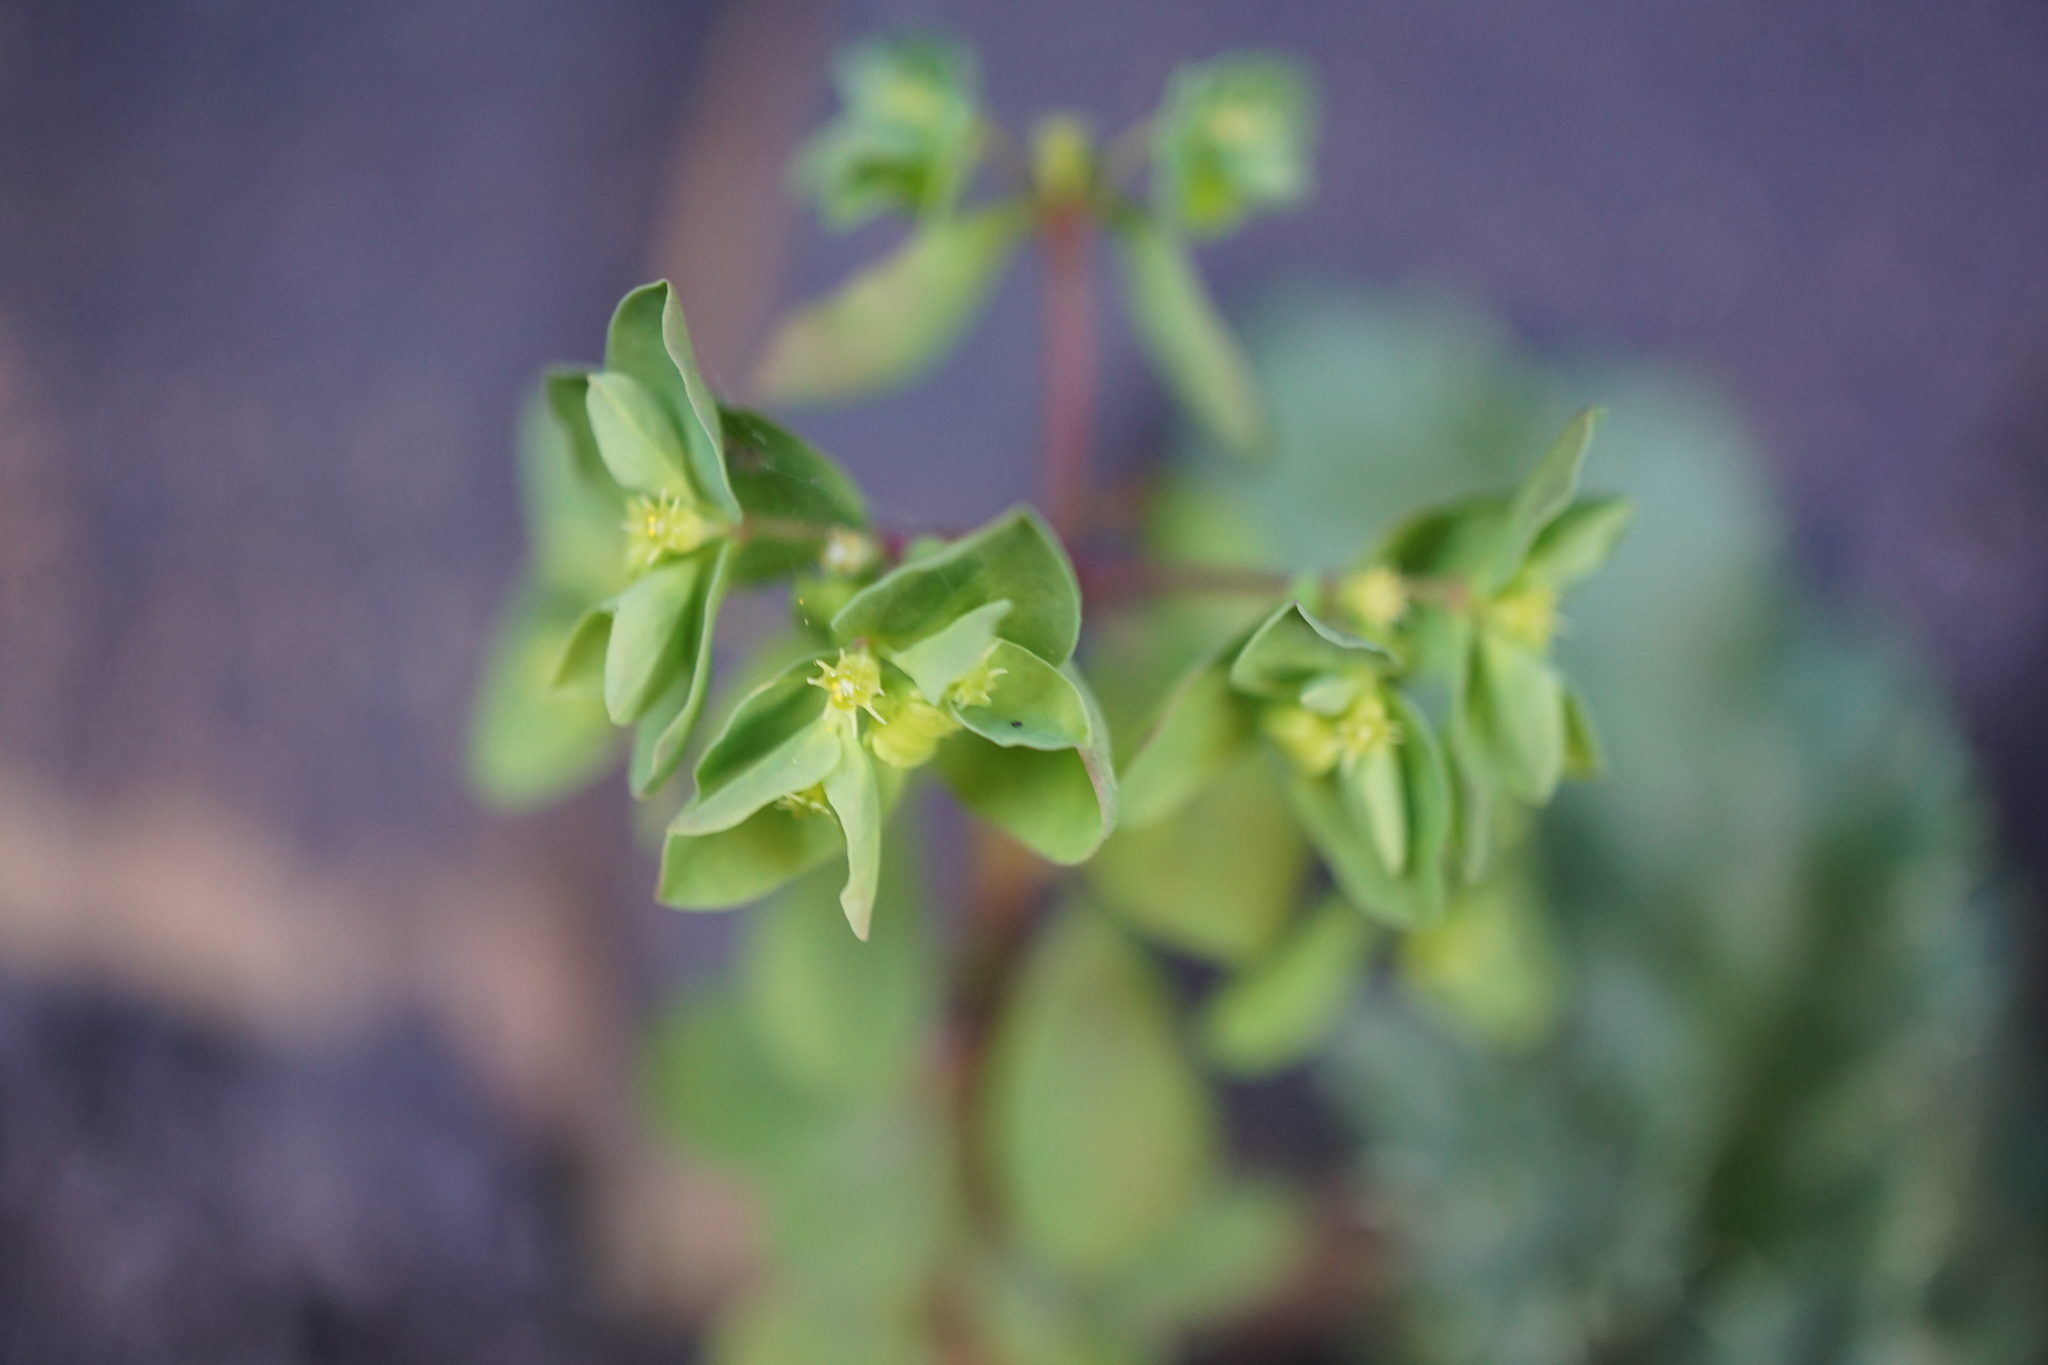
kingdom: Plantae
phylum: Tracheophyta
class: Magnoliopsida
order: Malpighiales
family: Euphorbiaceae
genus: Euphorbia
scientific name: Euphorbia peplus
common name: Petty spurge
